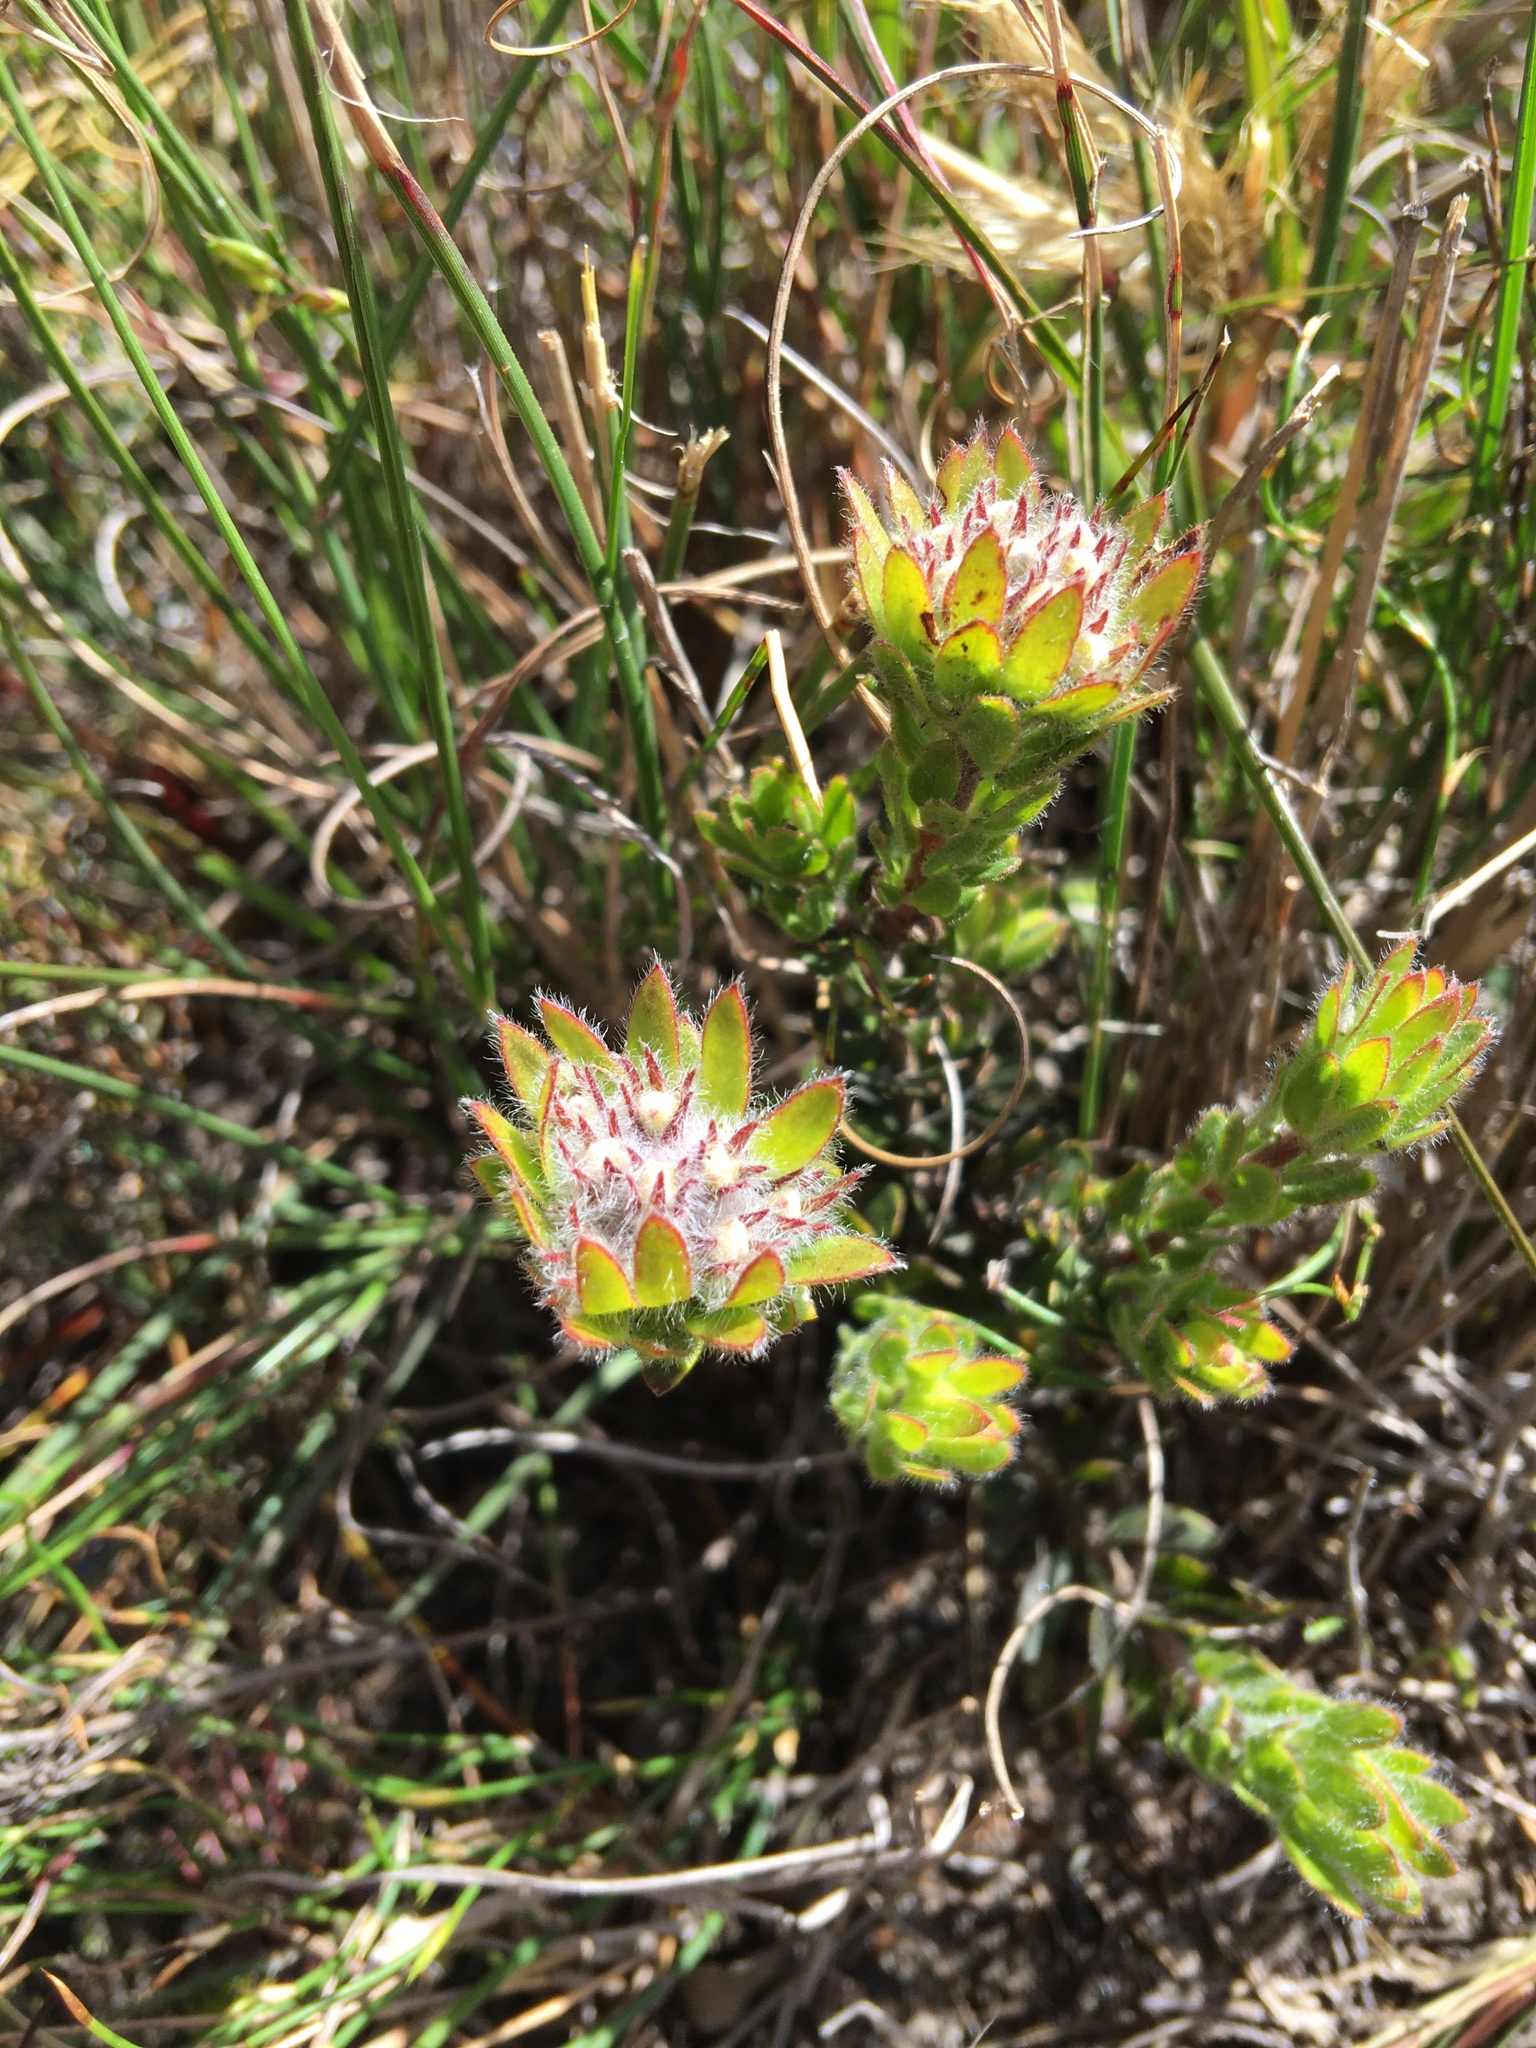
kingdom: Plantae
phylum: Tracheophyta
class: Magnoliopsida
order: Fabales
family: Fabaceae
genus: Aspalathus
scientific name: Aspalathus aspalathoides
